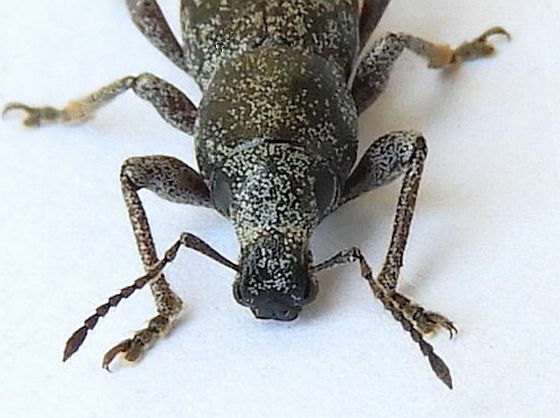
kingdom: Animalia
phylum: Arthropoda
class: Insecta
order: Coleoptera
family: Curculionidae
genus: Orimodema
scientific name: Orimodema protracta
